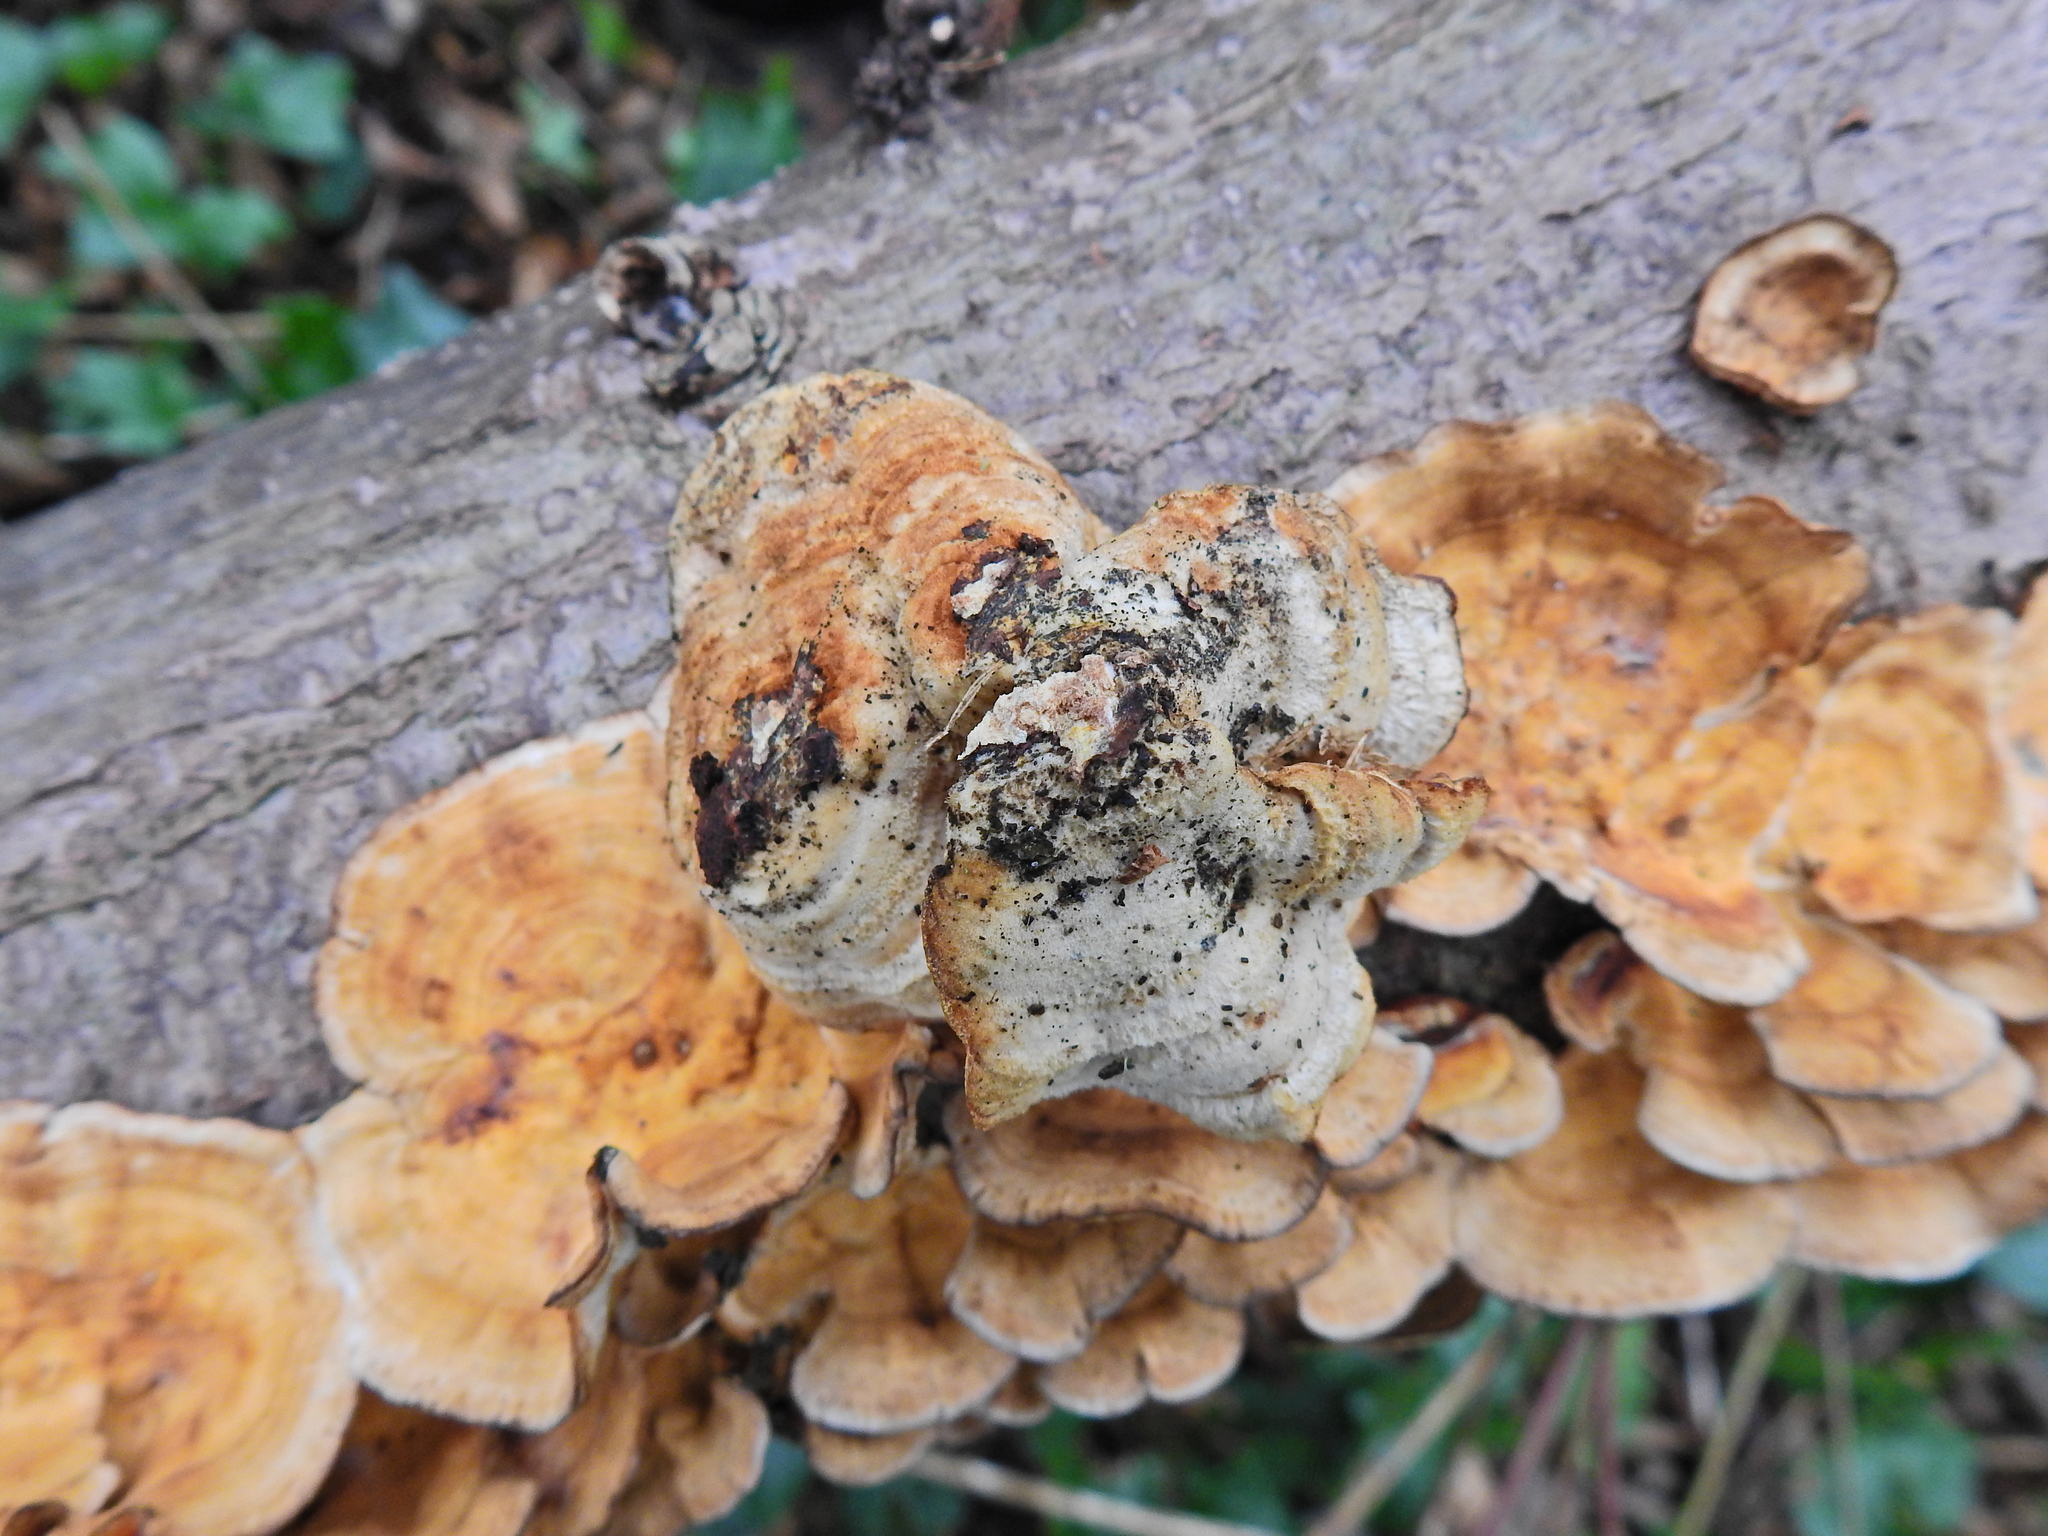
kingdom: Fungi
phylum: Basidiomycota
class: Agaricomycetes
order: Russulales
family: Stereaceae
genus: Stereum
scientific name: Stereum hirsutum
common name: Hairy curtain crust
